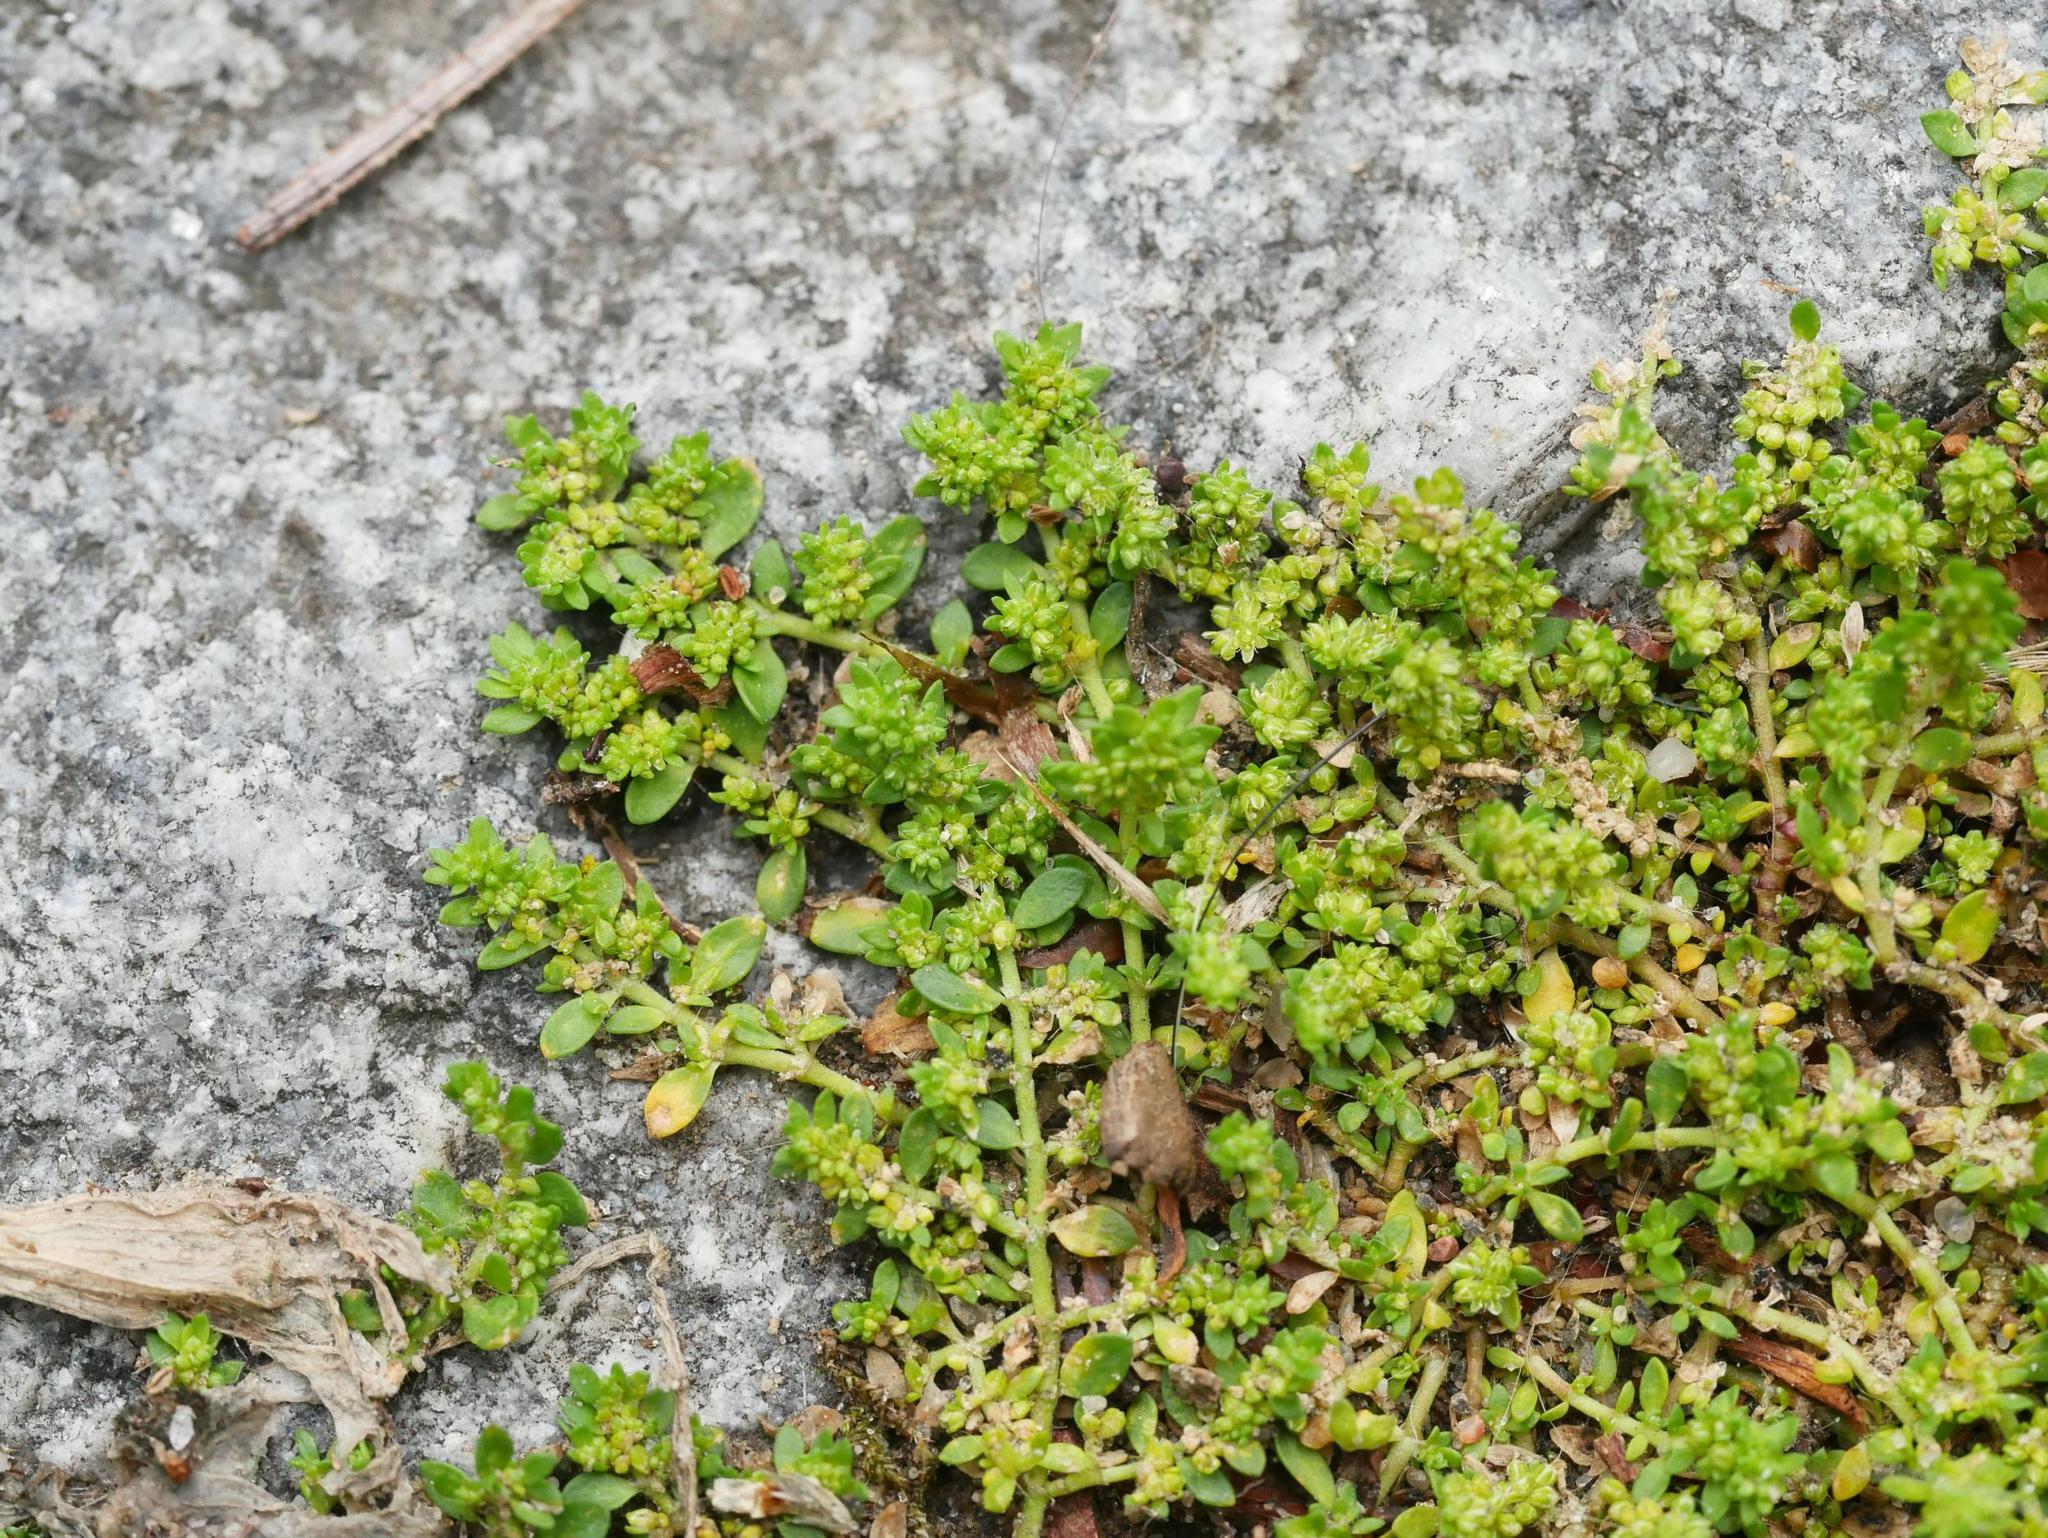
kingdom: Plantae
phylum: Tracheophyta
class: Magnoliopsida
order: Caryophyllales
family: Caryophyllaceae
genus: Herniaria
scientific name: Herniaria glabra
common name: Smooth rupturewort
